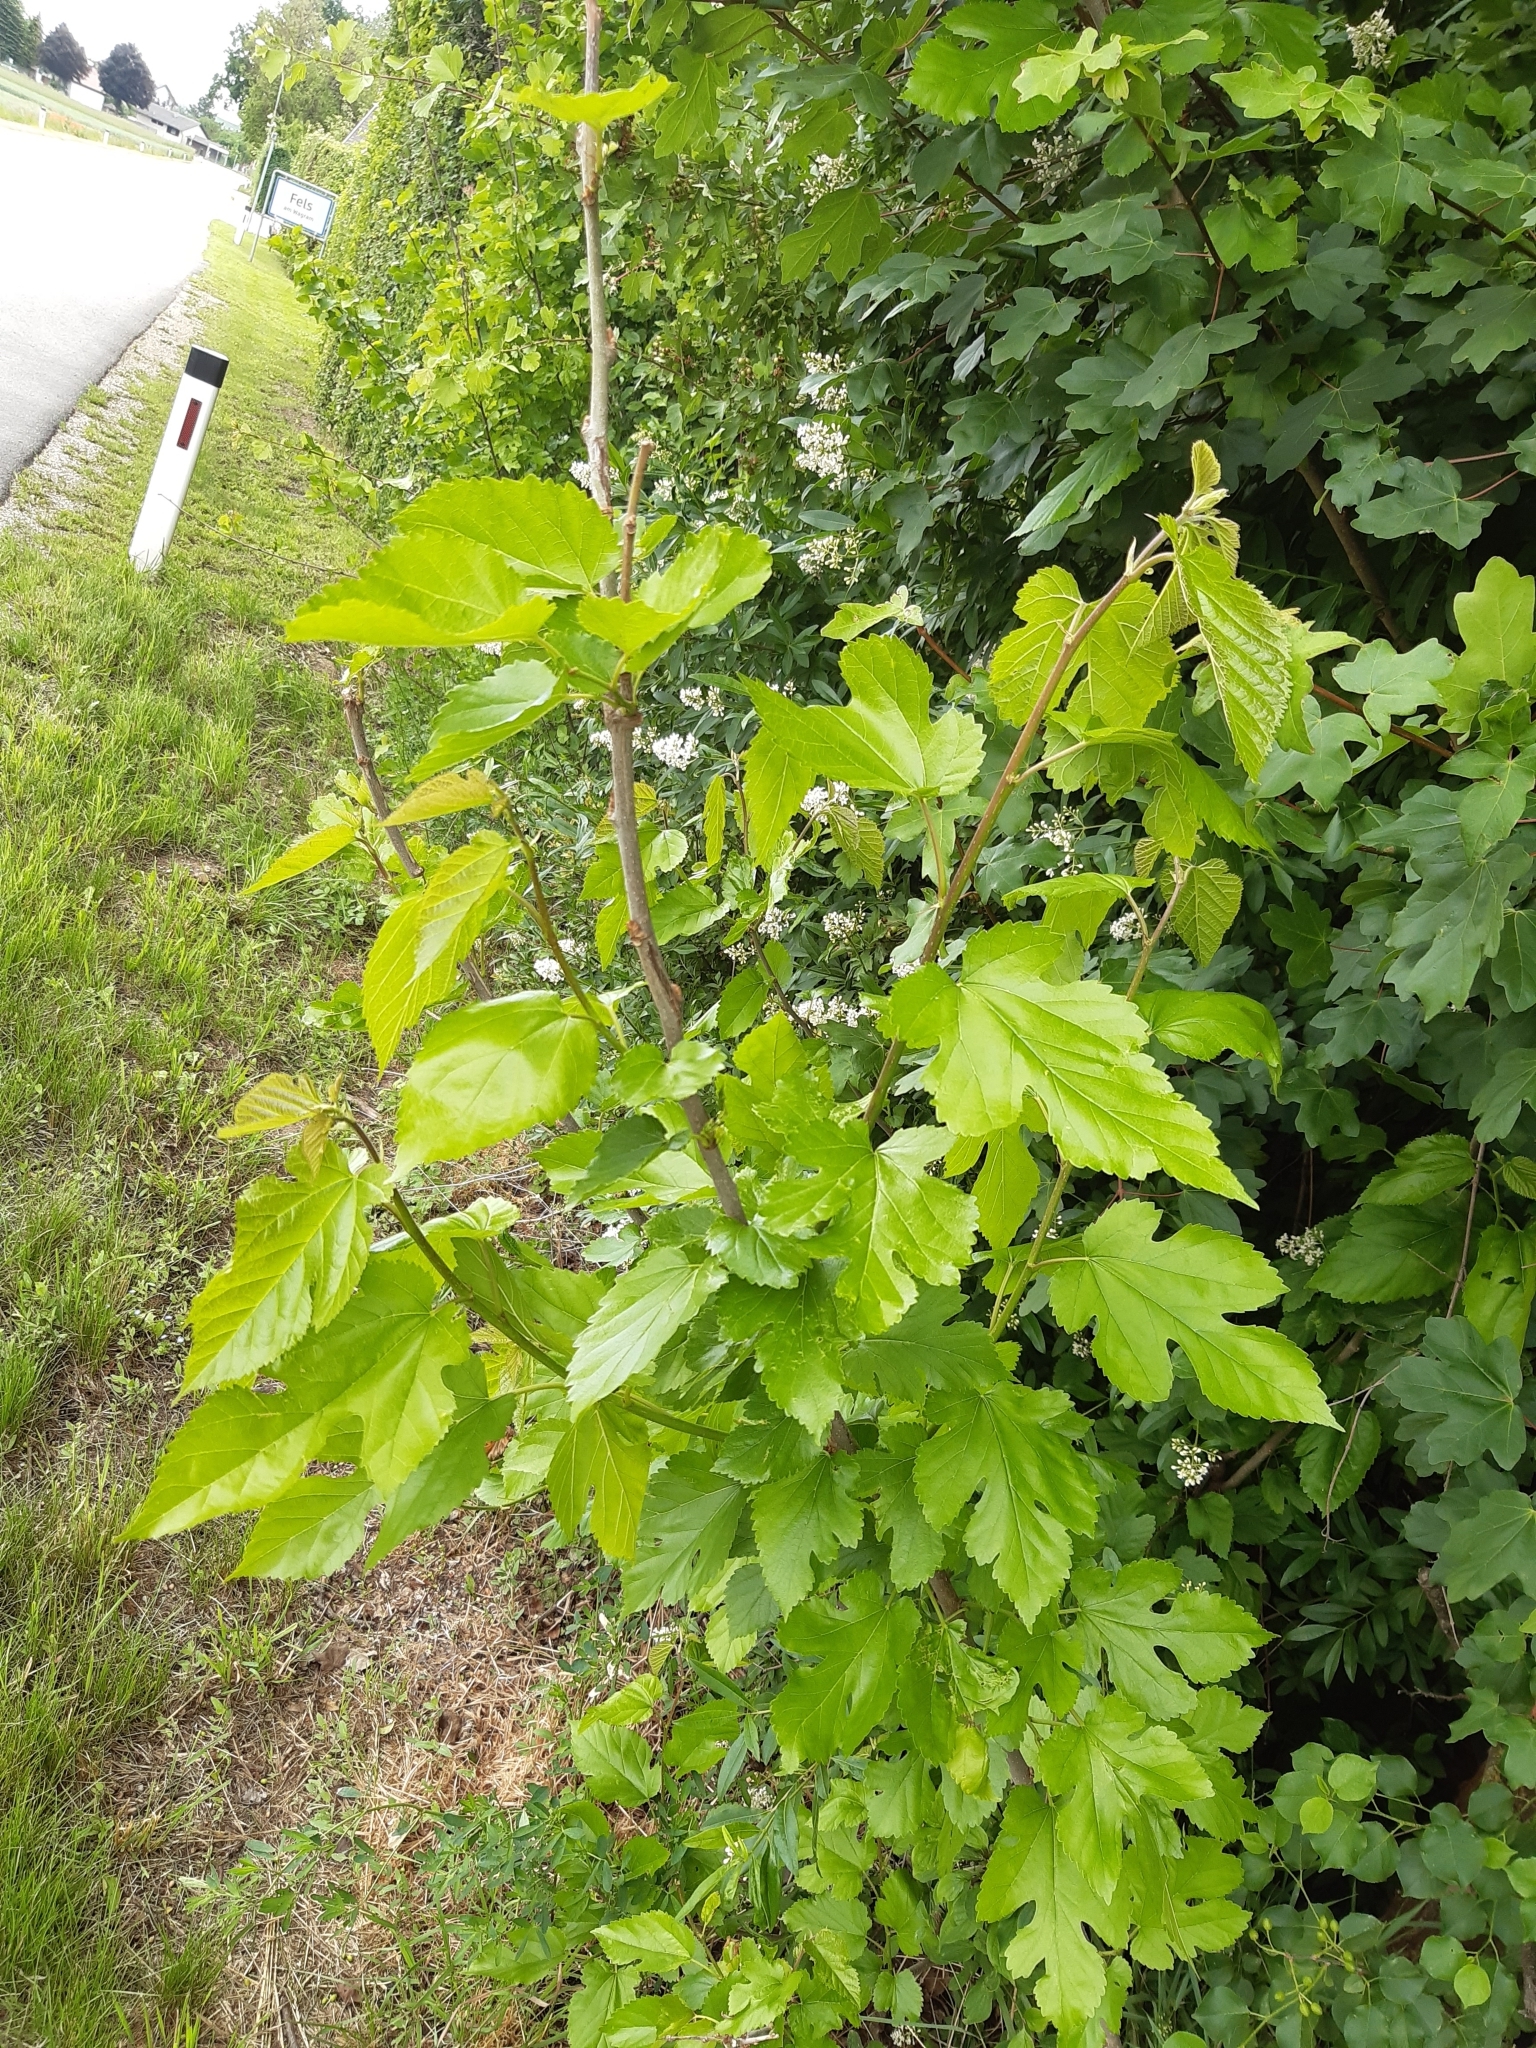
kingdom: Plantae
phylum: Tracheophyta
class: Magnoliopsida
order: Rosales
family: Moraceae
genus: Morus
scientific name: Morus alba
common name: White mulberry
